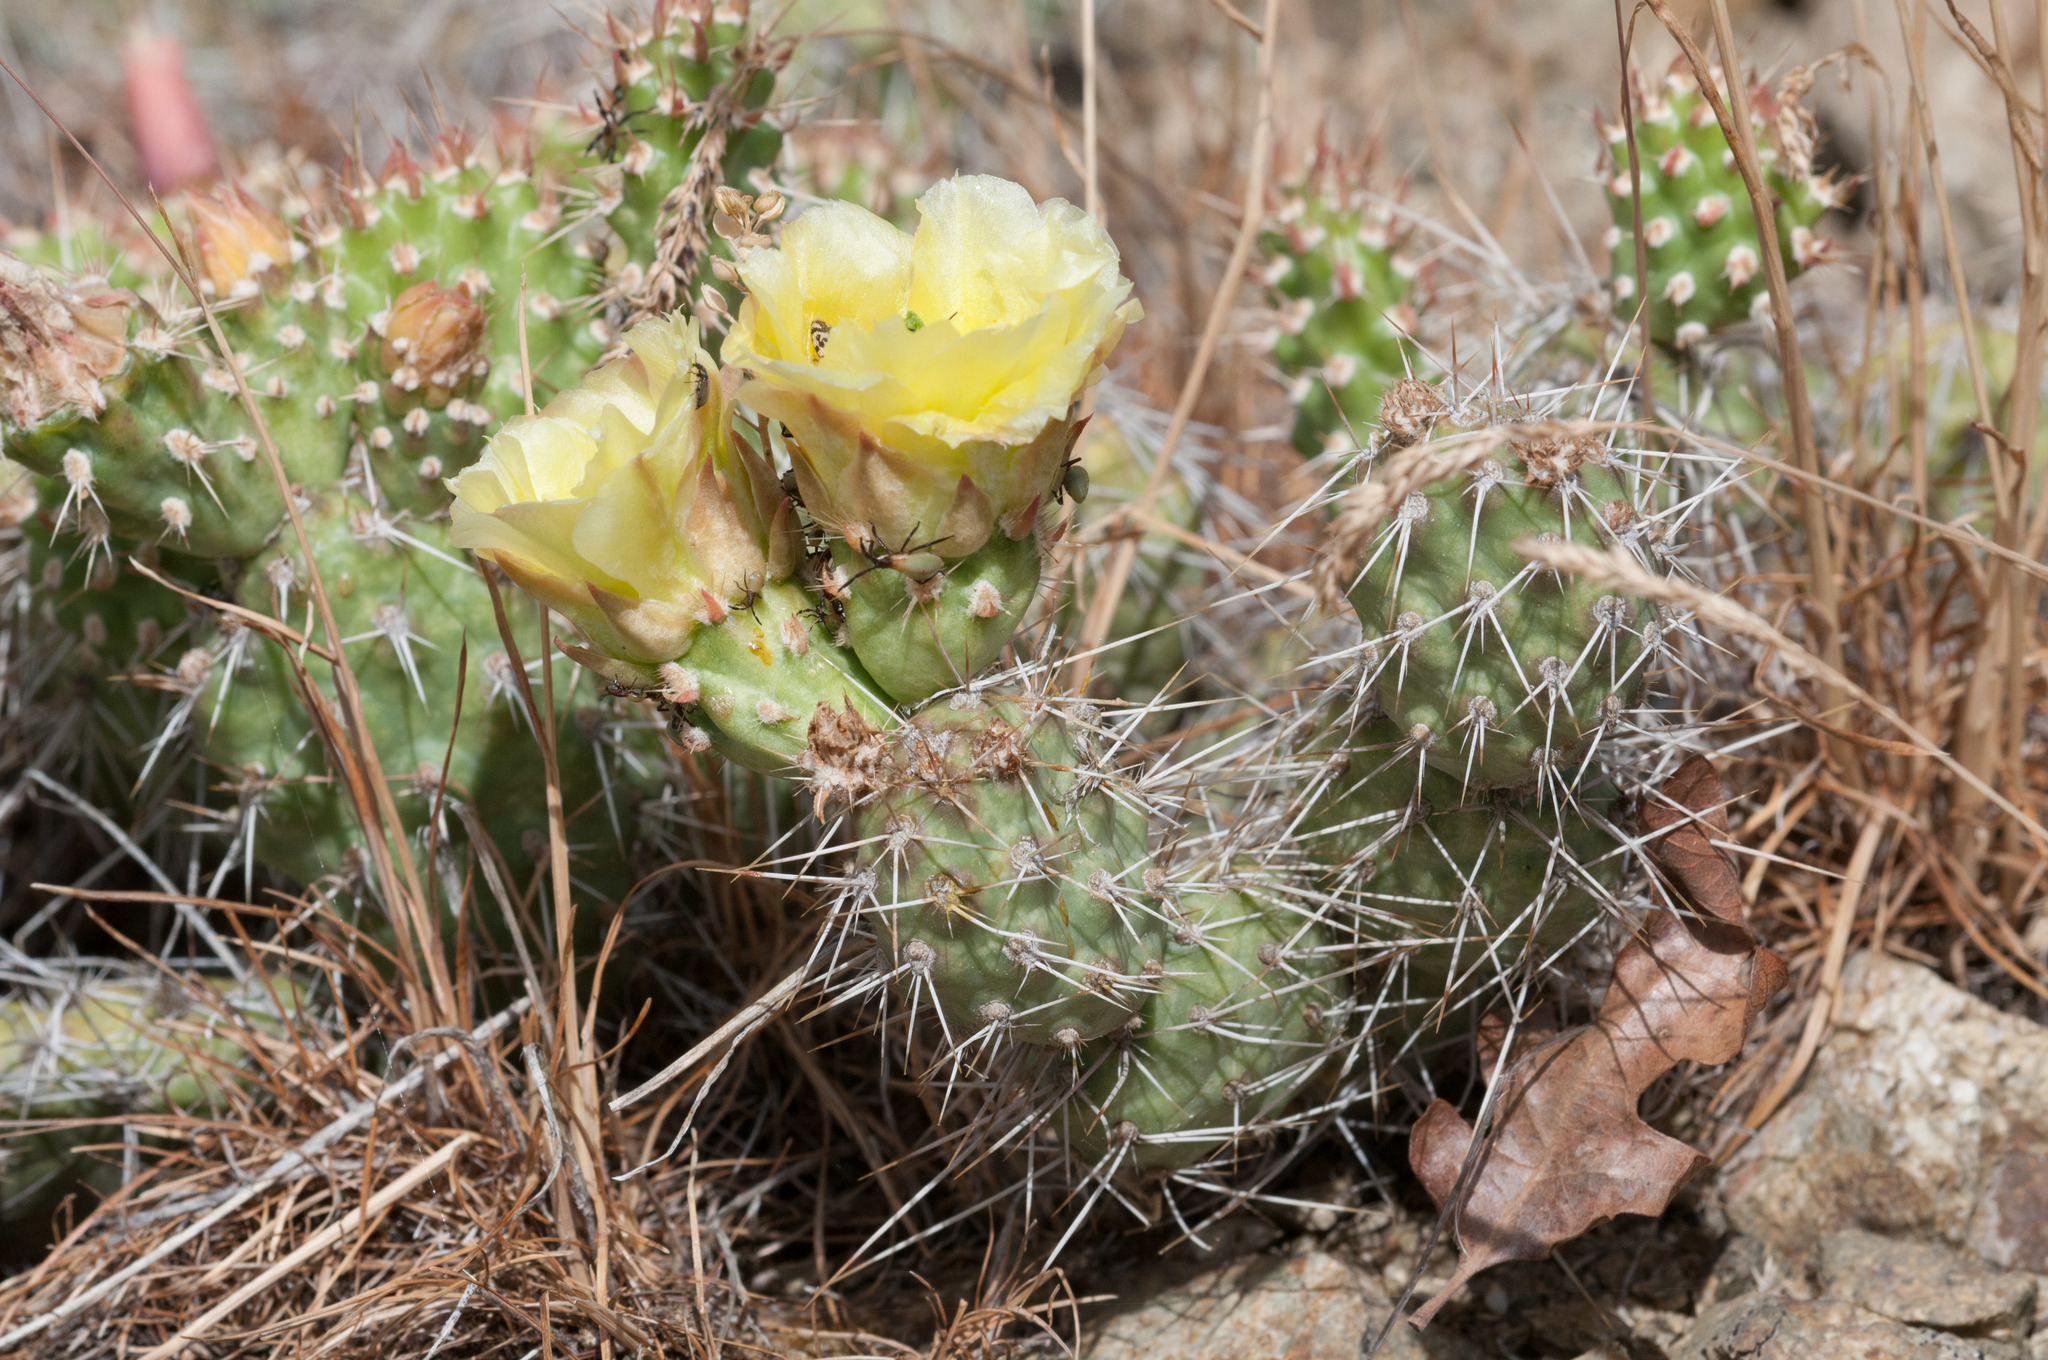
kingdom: Plantae
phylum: Tracheophyta
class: Magnoliopsida
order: Caryophyllales
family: Cactaceae
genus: Opuntia
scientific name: Opuntia fragilis
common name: Brittle cactus
